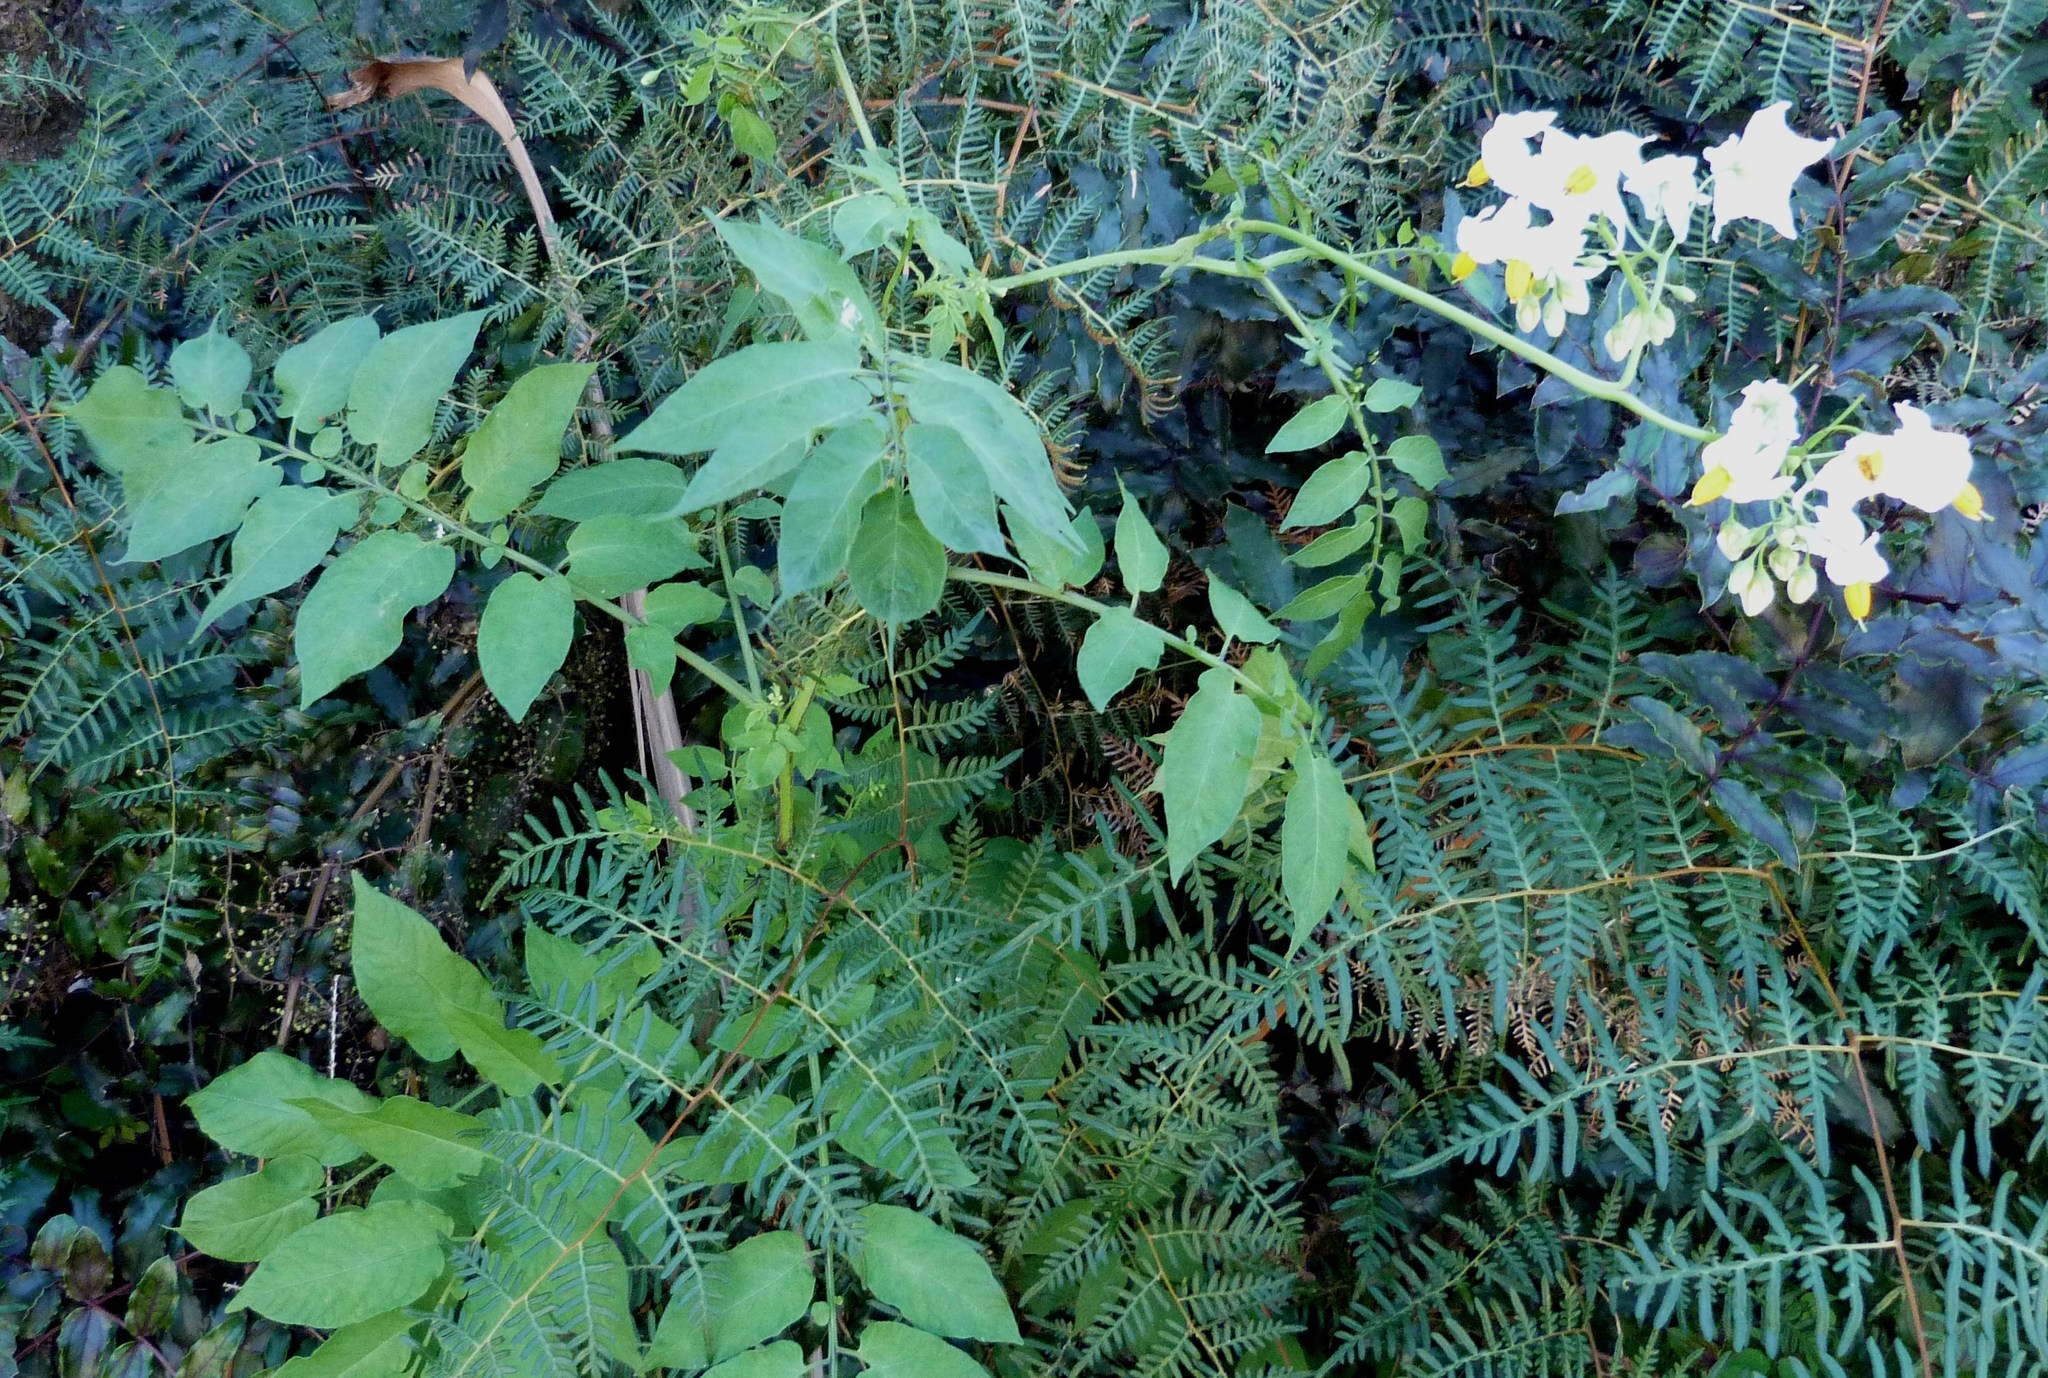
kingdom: Plantae
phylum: Tracheophyta
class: Magnoliopsida
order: Solanales
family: Solanaceae
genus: Solanum
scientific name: Solanum chacoense
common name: Chaco potato
